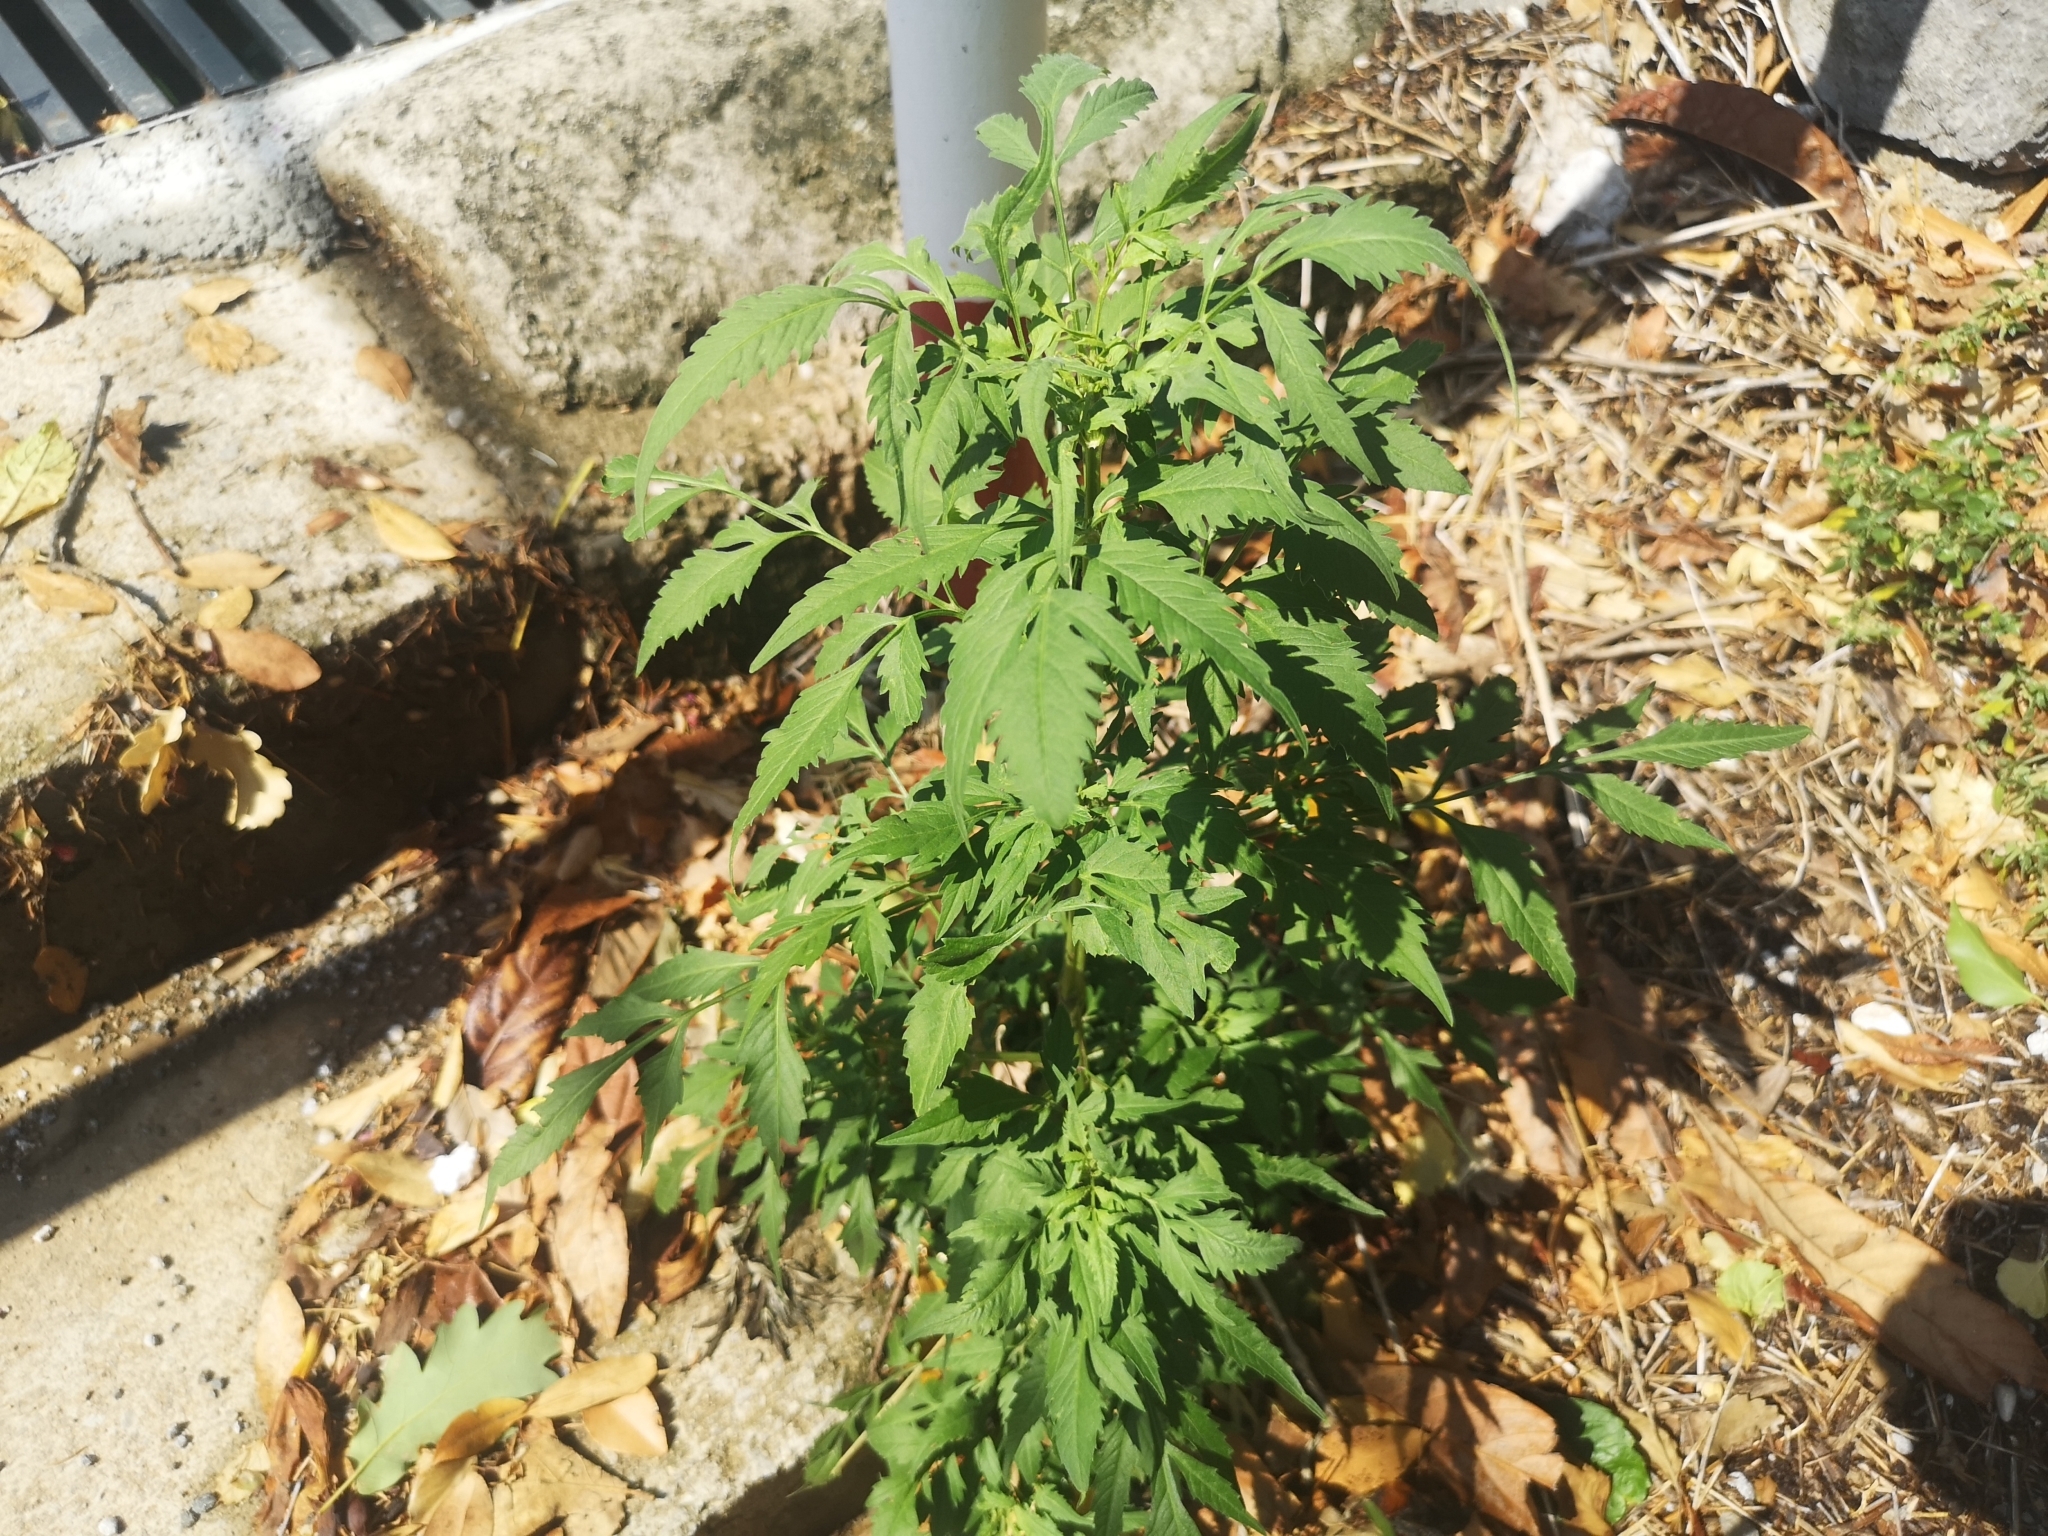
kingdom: Plantae
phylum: Tracheophyta
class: Magnoliopsida
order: Asterales
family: Asteraceae
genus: Bidens
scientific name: Bidens subalternans
